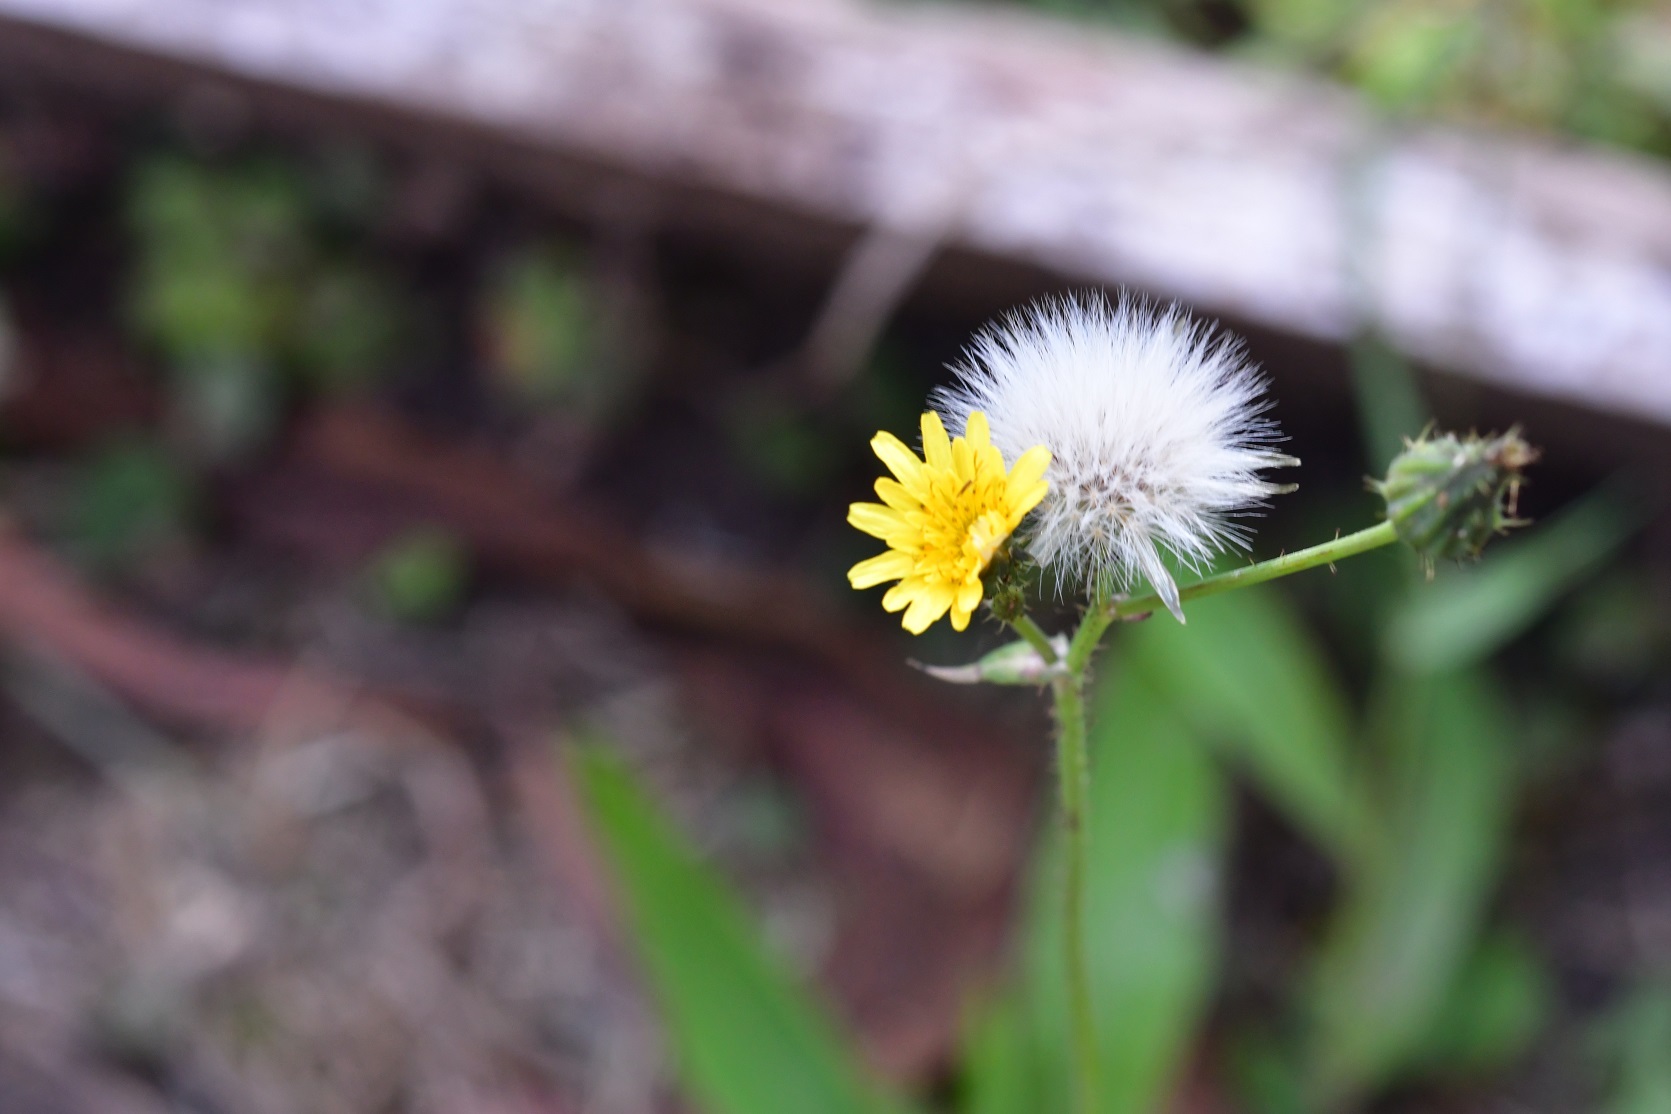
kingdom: Plantae
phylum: Tracheophyta
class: Magnoliopsida
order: Asterales
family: Asteraceae
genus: Sonchus
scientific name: Sonchus oleraceus
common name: Common sowthistle
